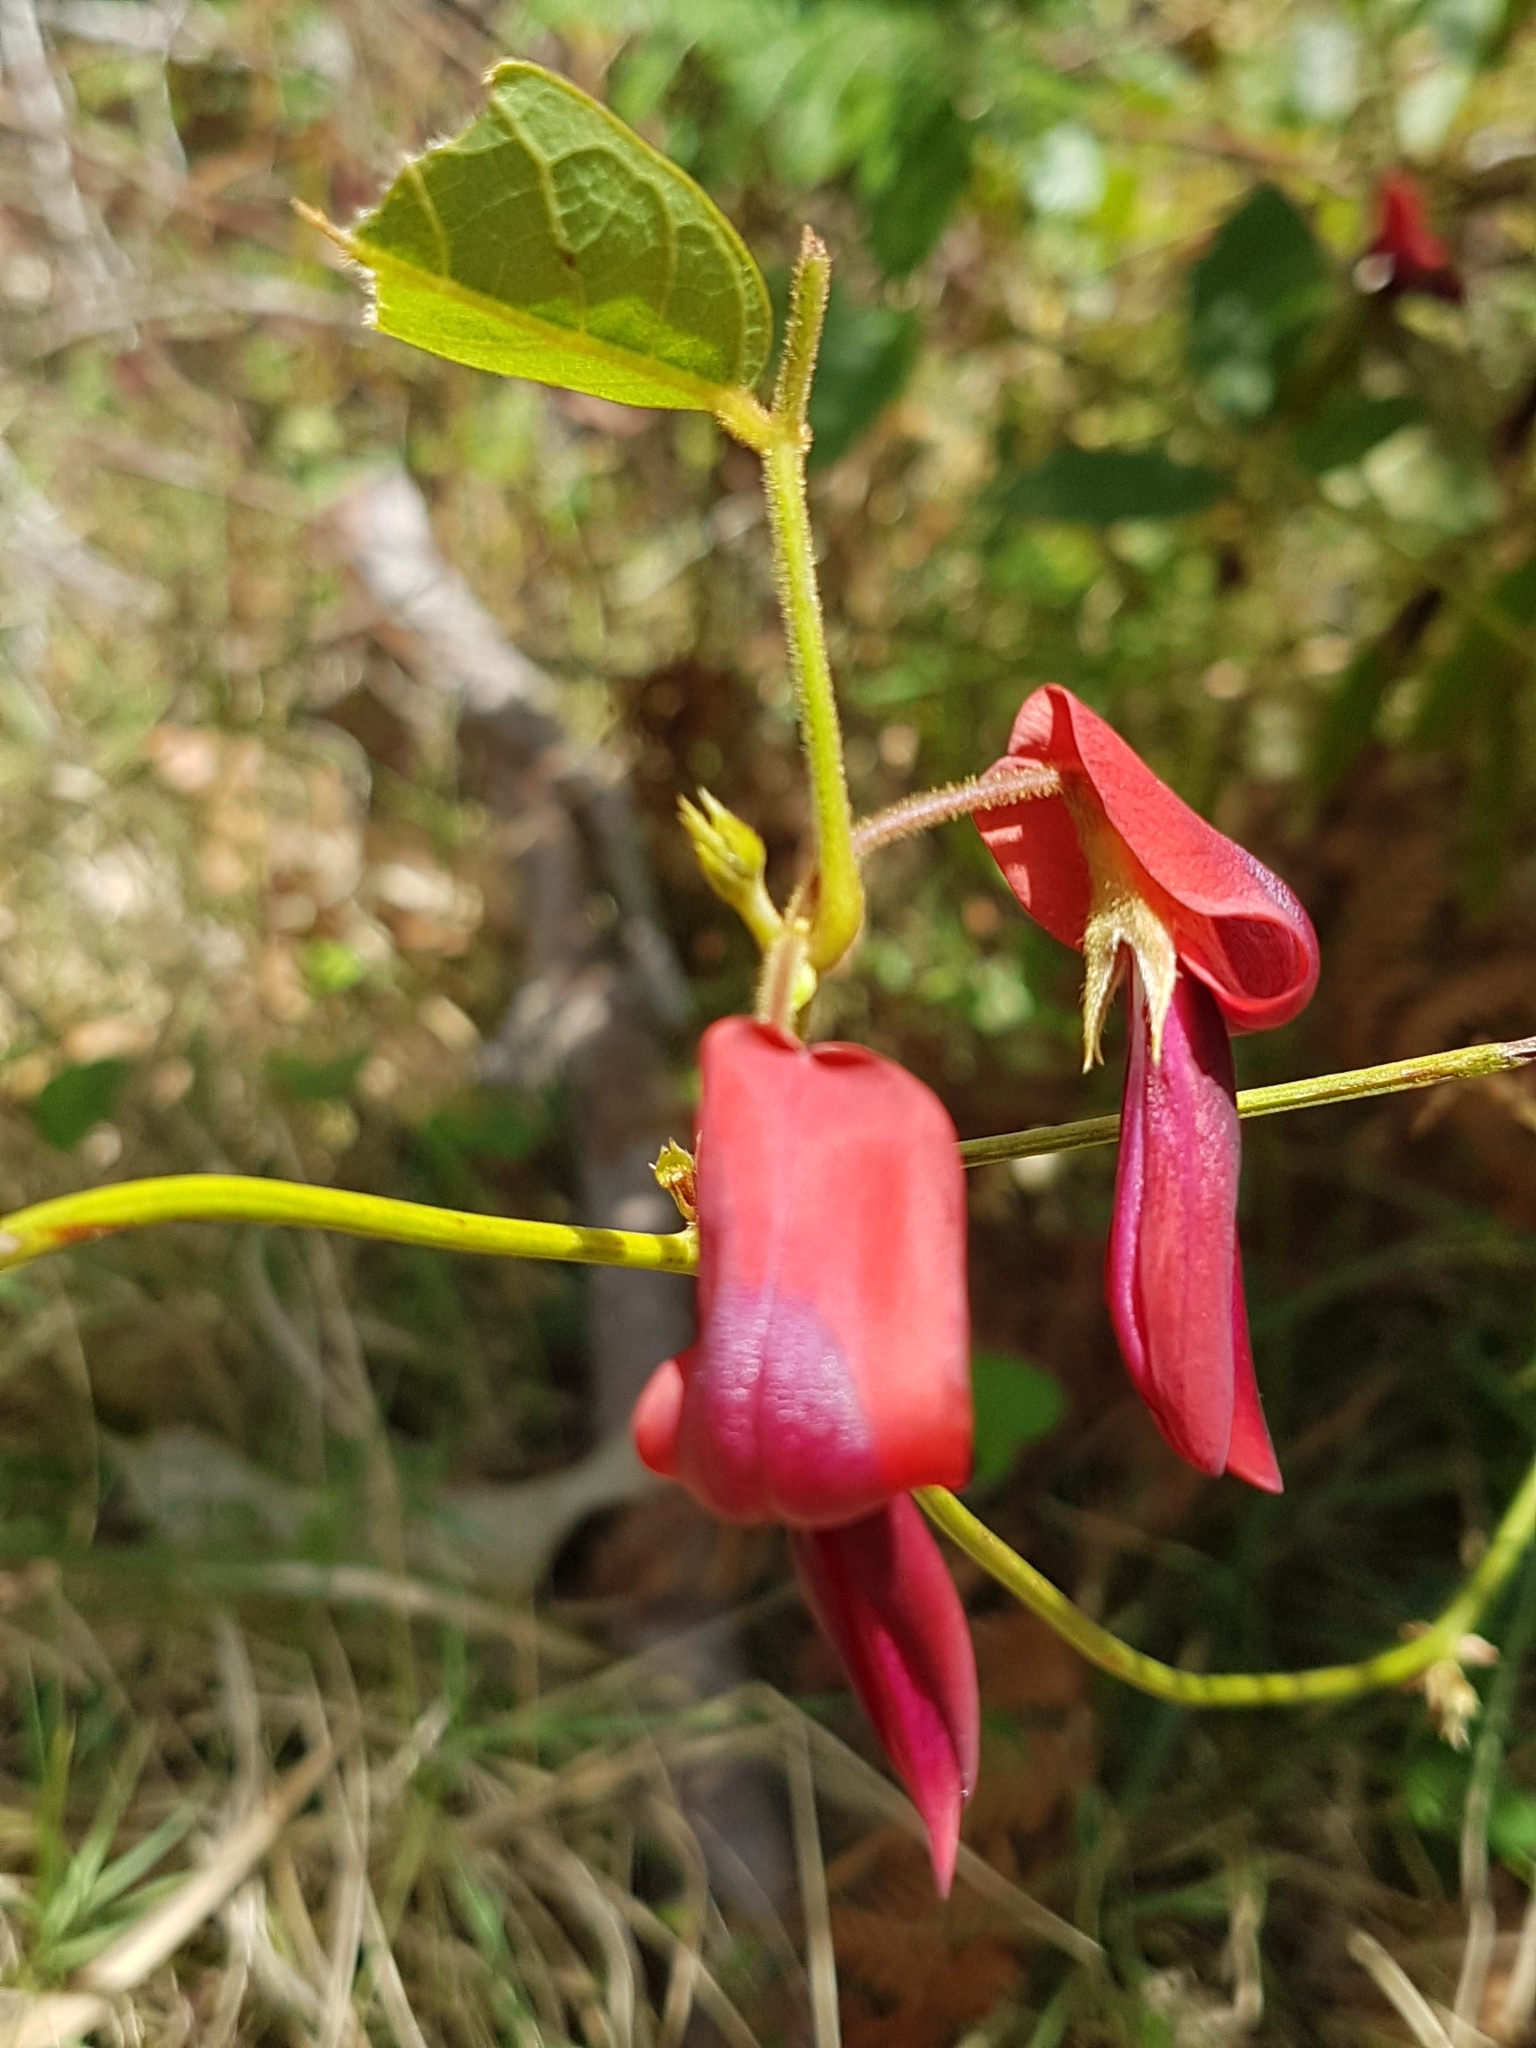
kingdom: Plantae
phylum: Tracheophyta
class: Magnoliopsida
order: Fabales
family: Fabaceae
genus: Kennedia
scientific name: Kennedia rubicunda
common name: Red kennedy-pea
